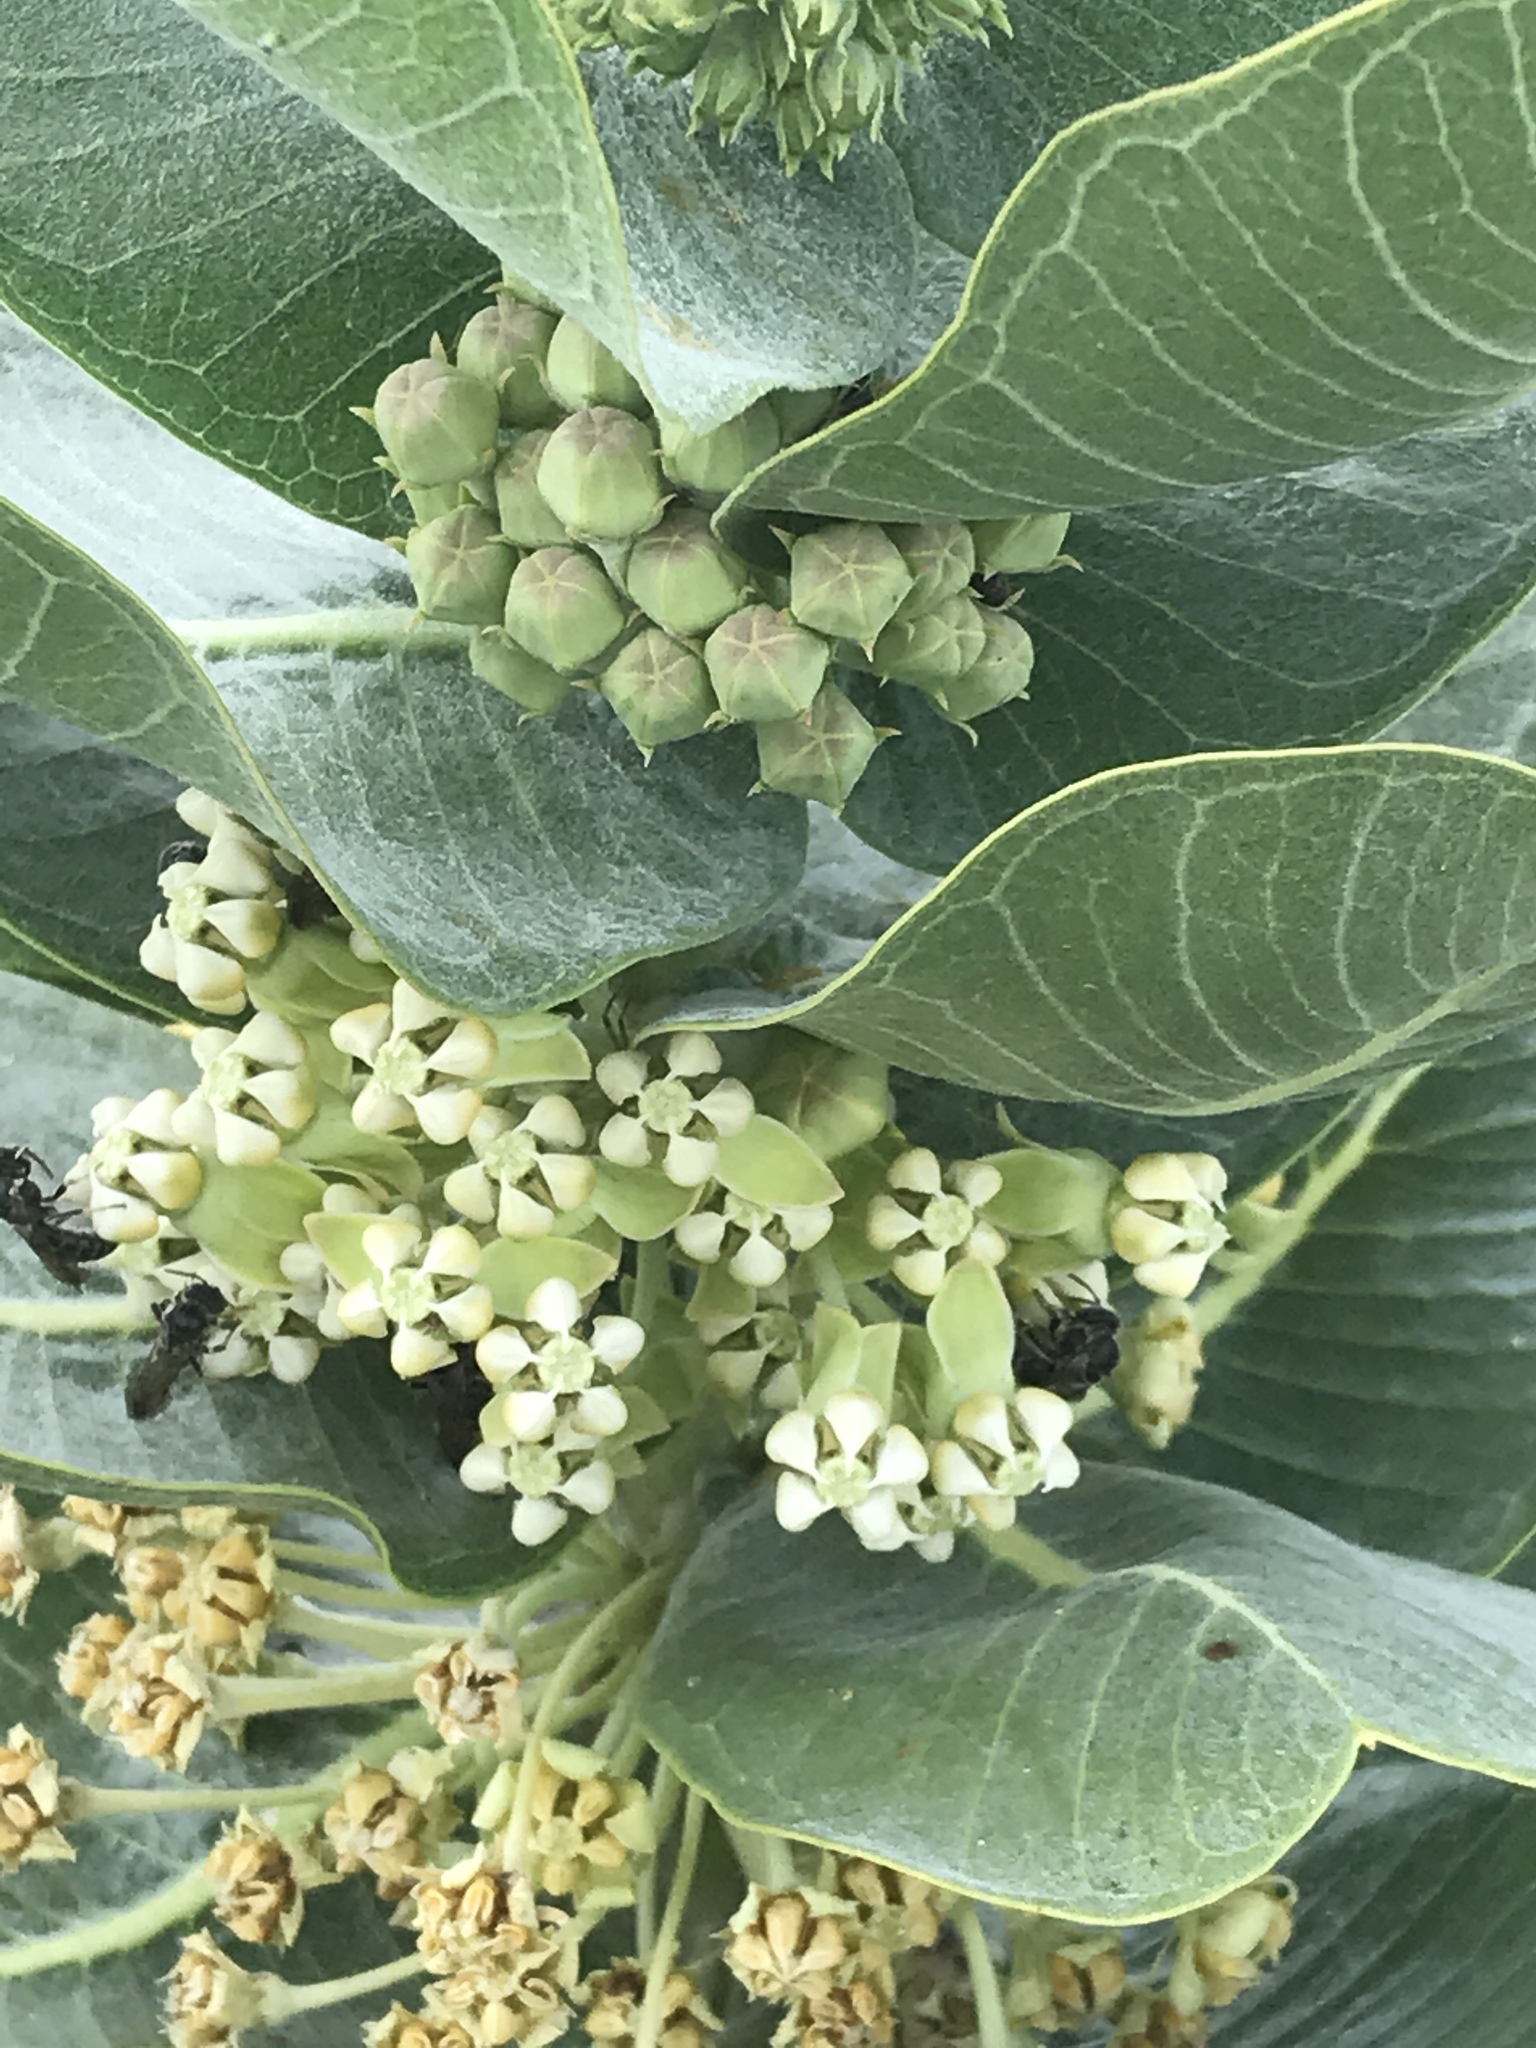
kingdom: Plantae
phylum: Tracheophyta
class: Magnoliopsida
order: Gentianales
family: Apocynaceae
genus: Asclepias
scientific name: Asclepias latifolia
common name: Broadleaf milkweed
